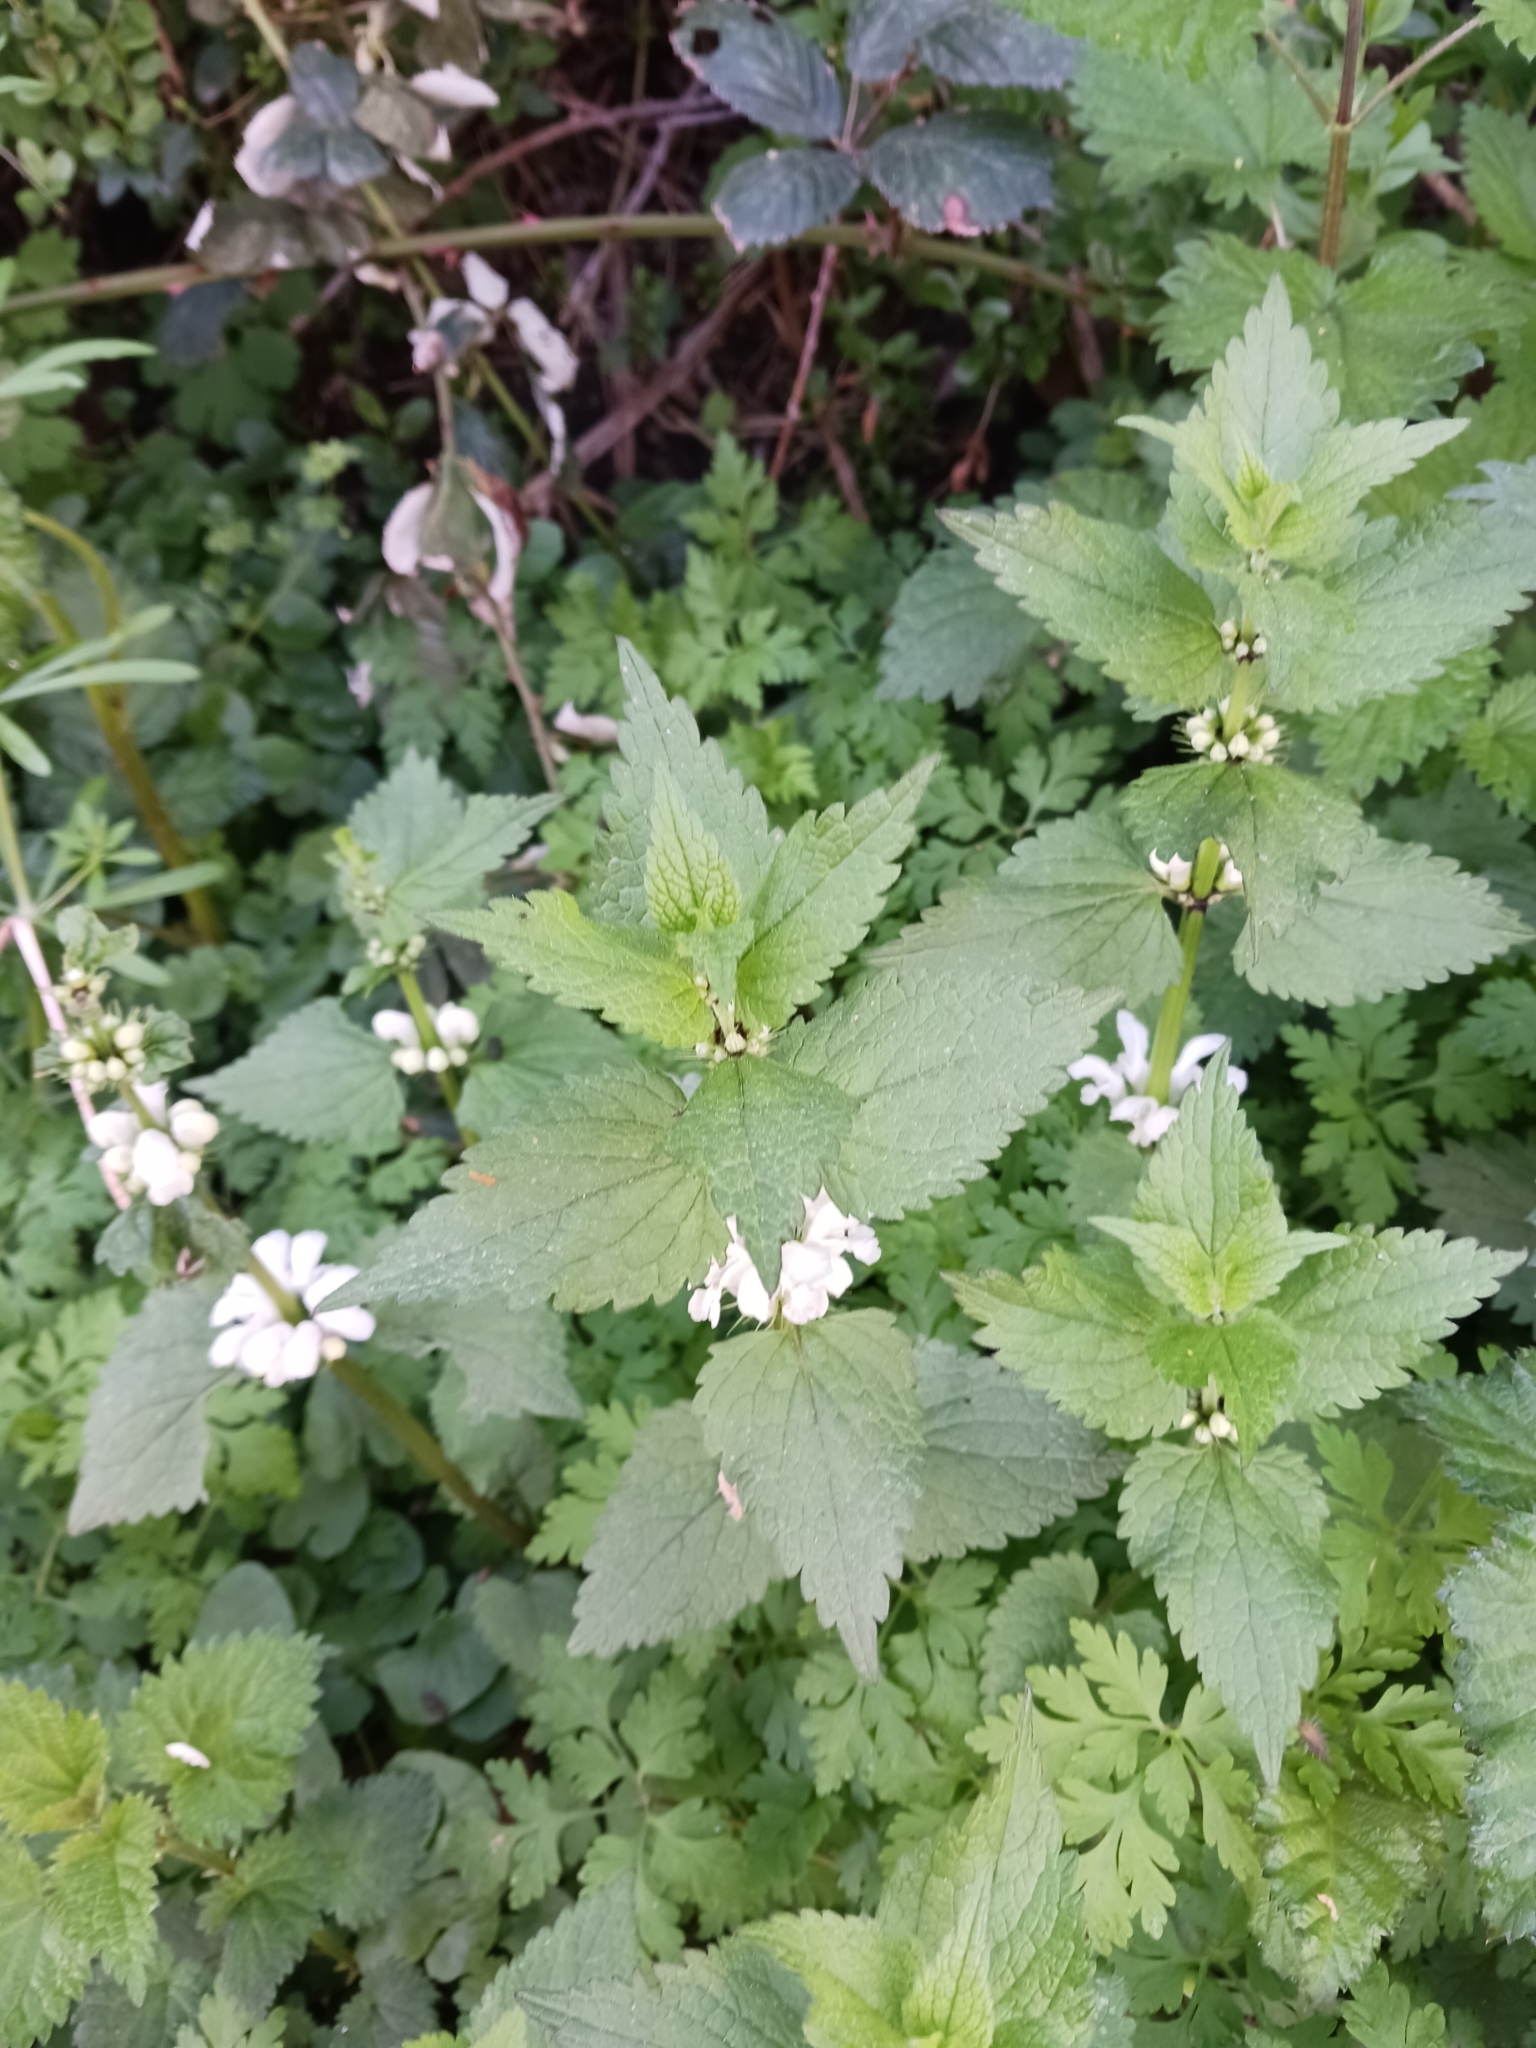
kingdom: Plantae
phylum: Tracheophyta
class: Magnoliopsida
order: Lamiales
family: Lamiaceae
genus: Lamium
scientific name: Lamium album
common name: White dead-nettle
